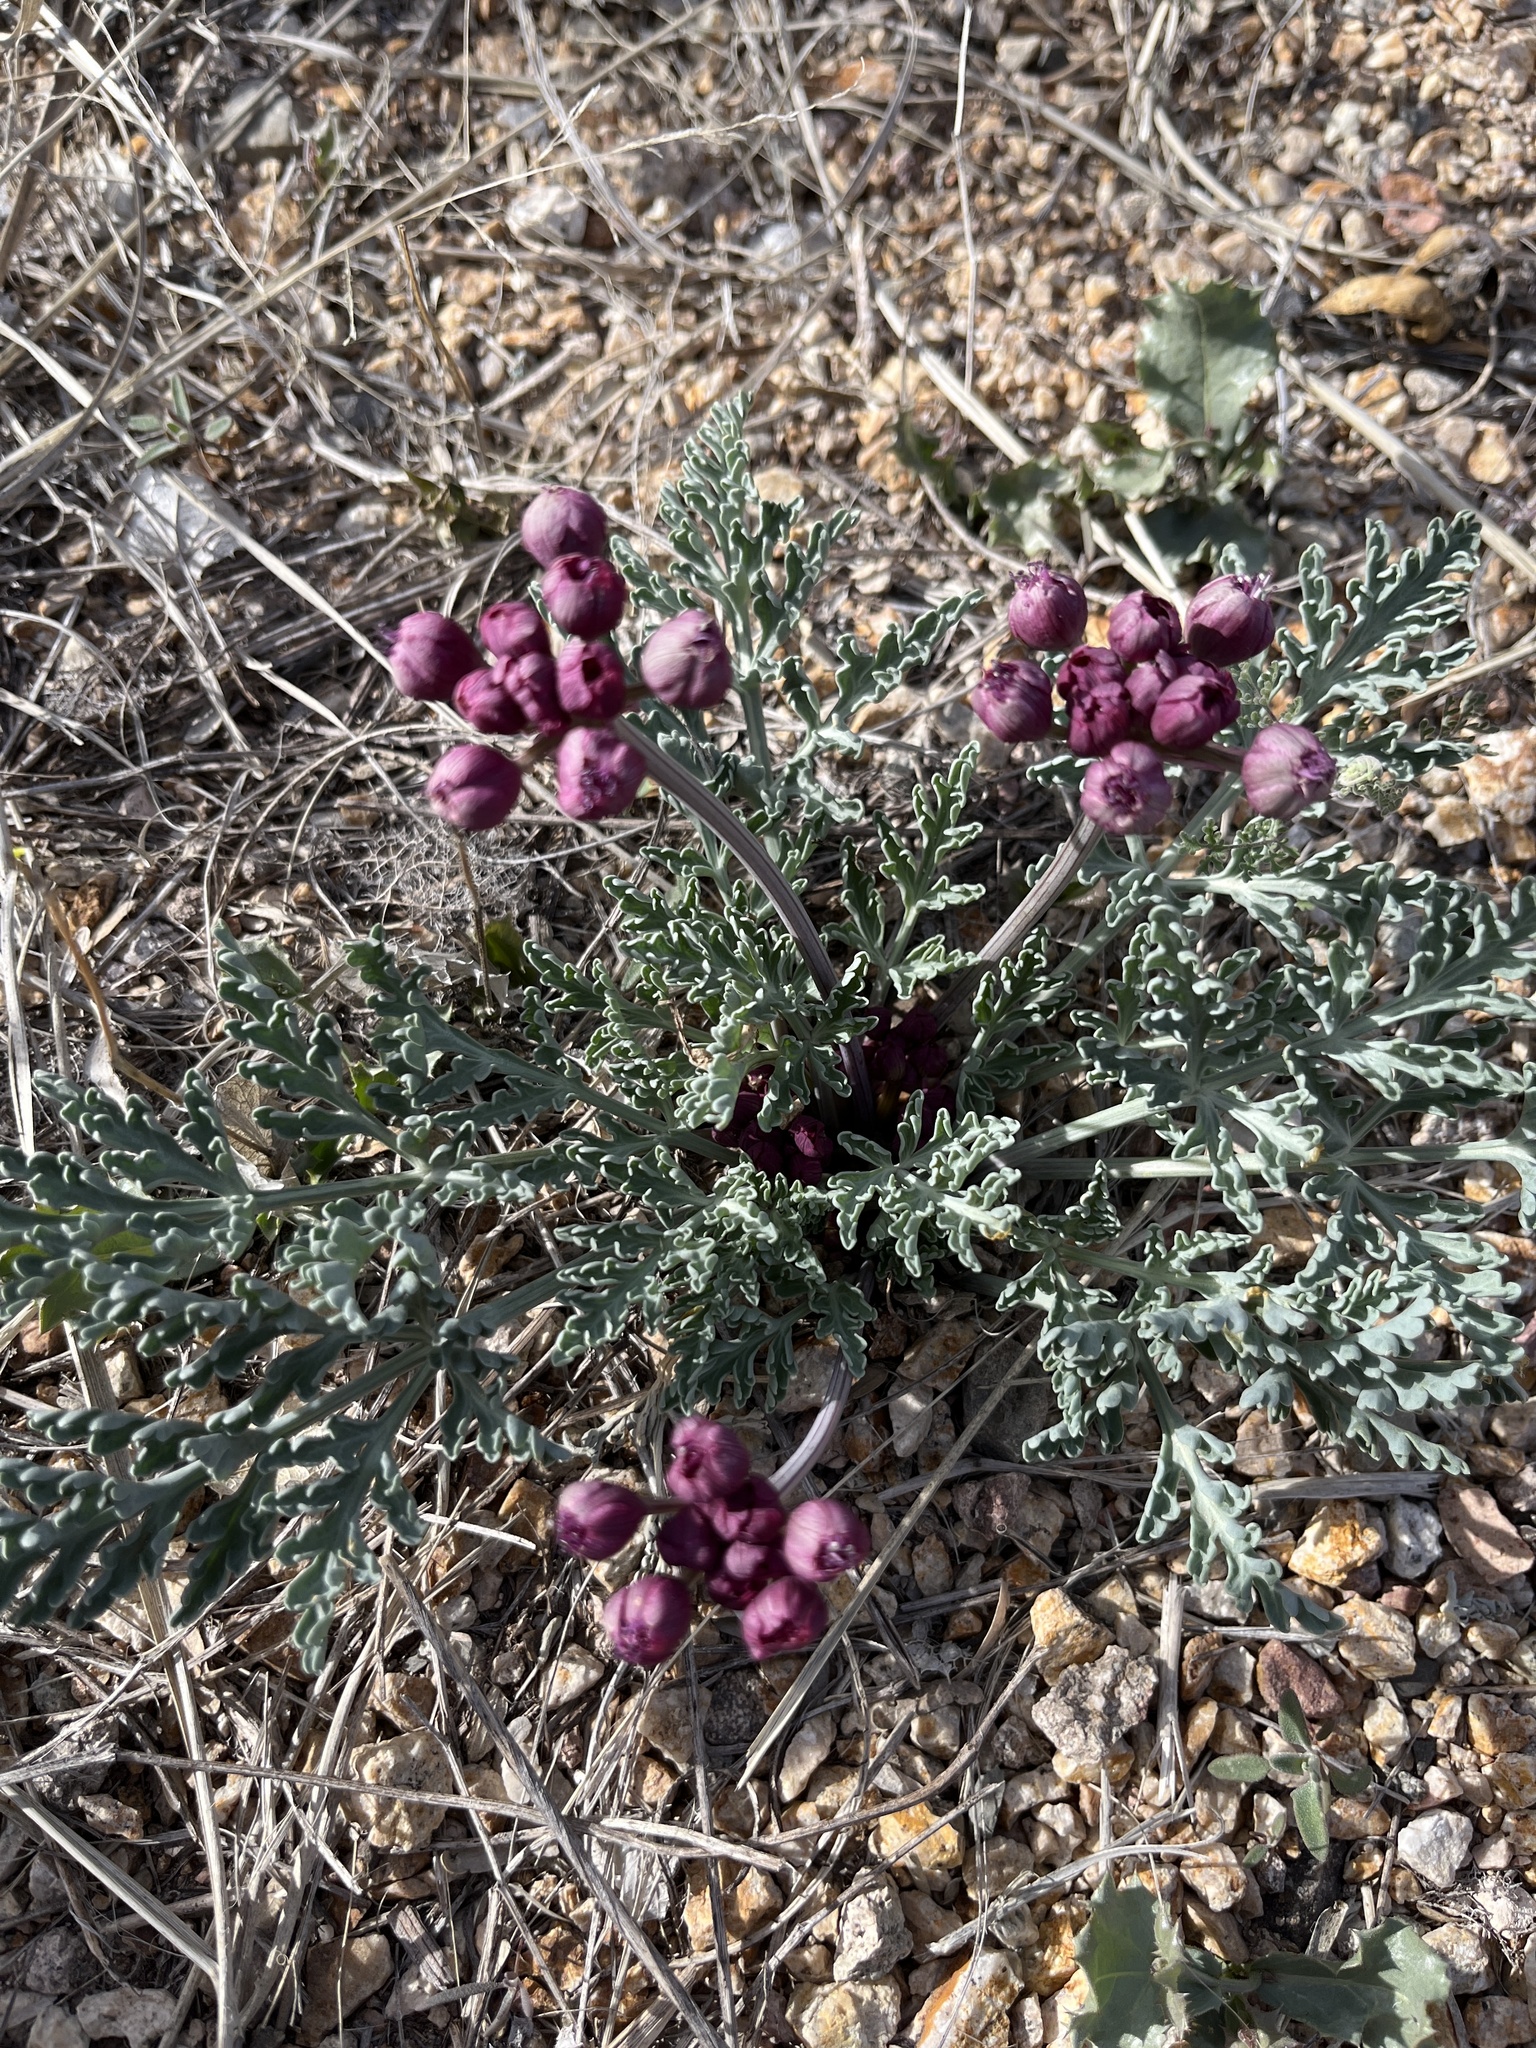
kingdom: Plantae
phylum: Tracheophyta
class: Magnoliopsida
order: Apiales
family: Apiaceae
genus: Vesper
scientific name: Vesper multinervatus
